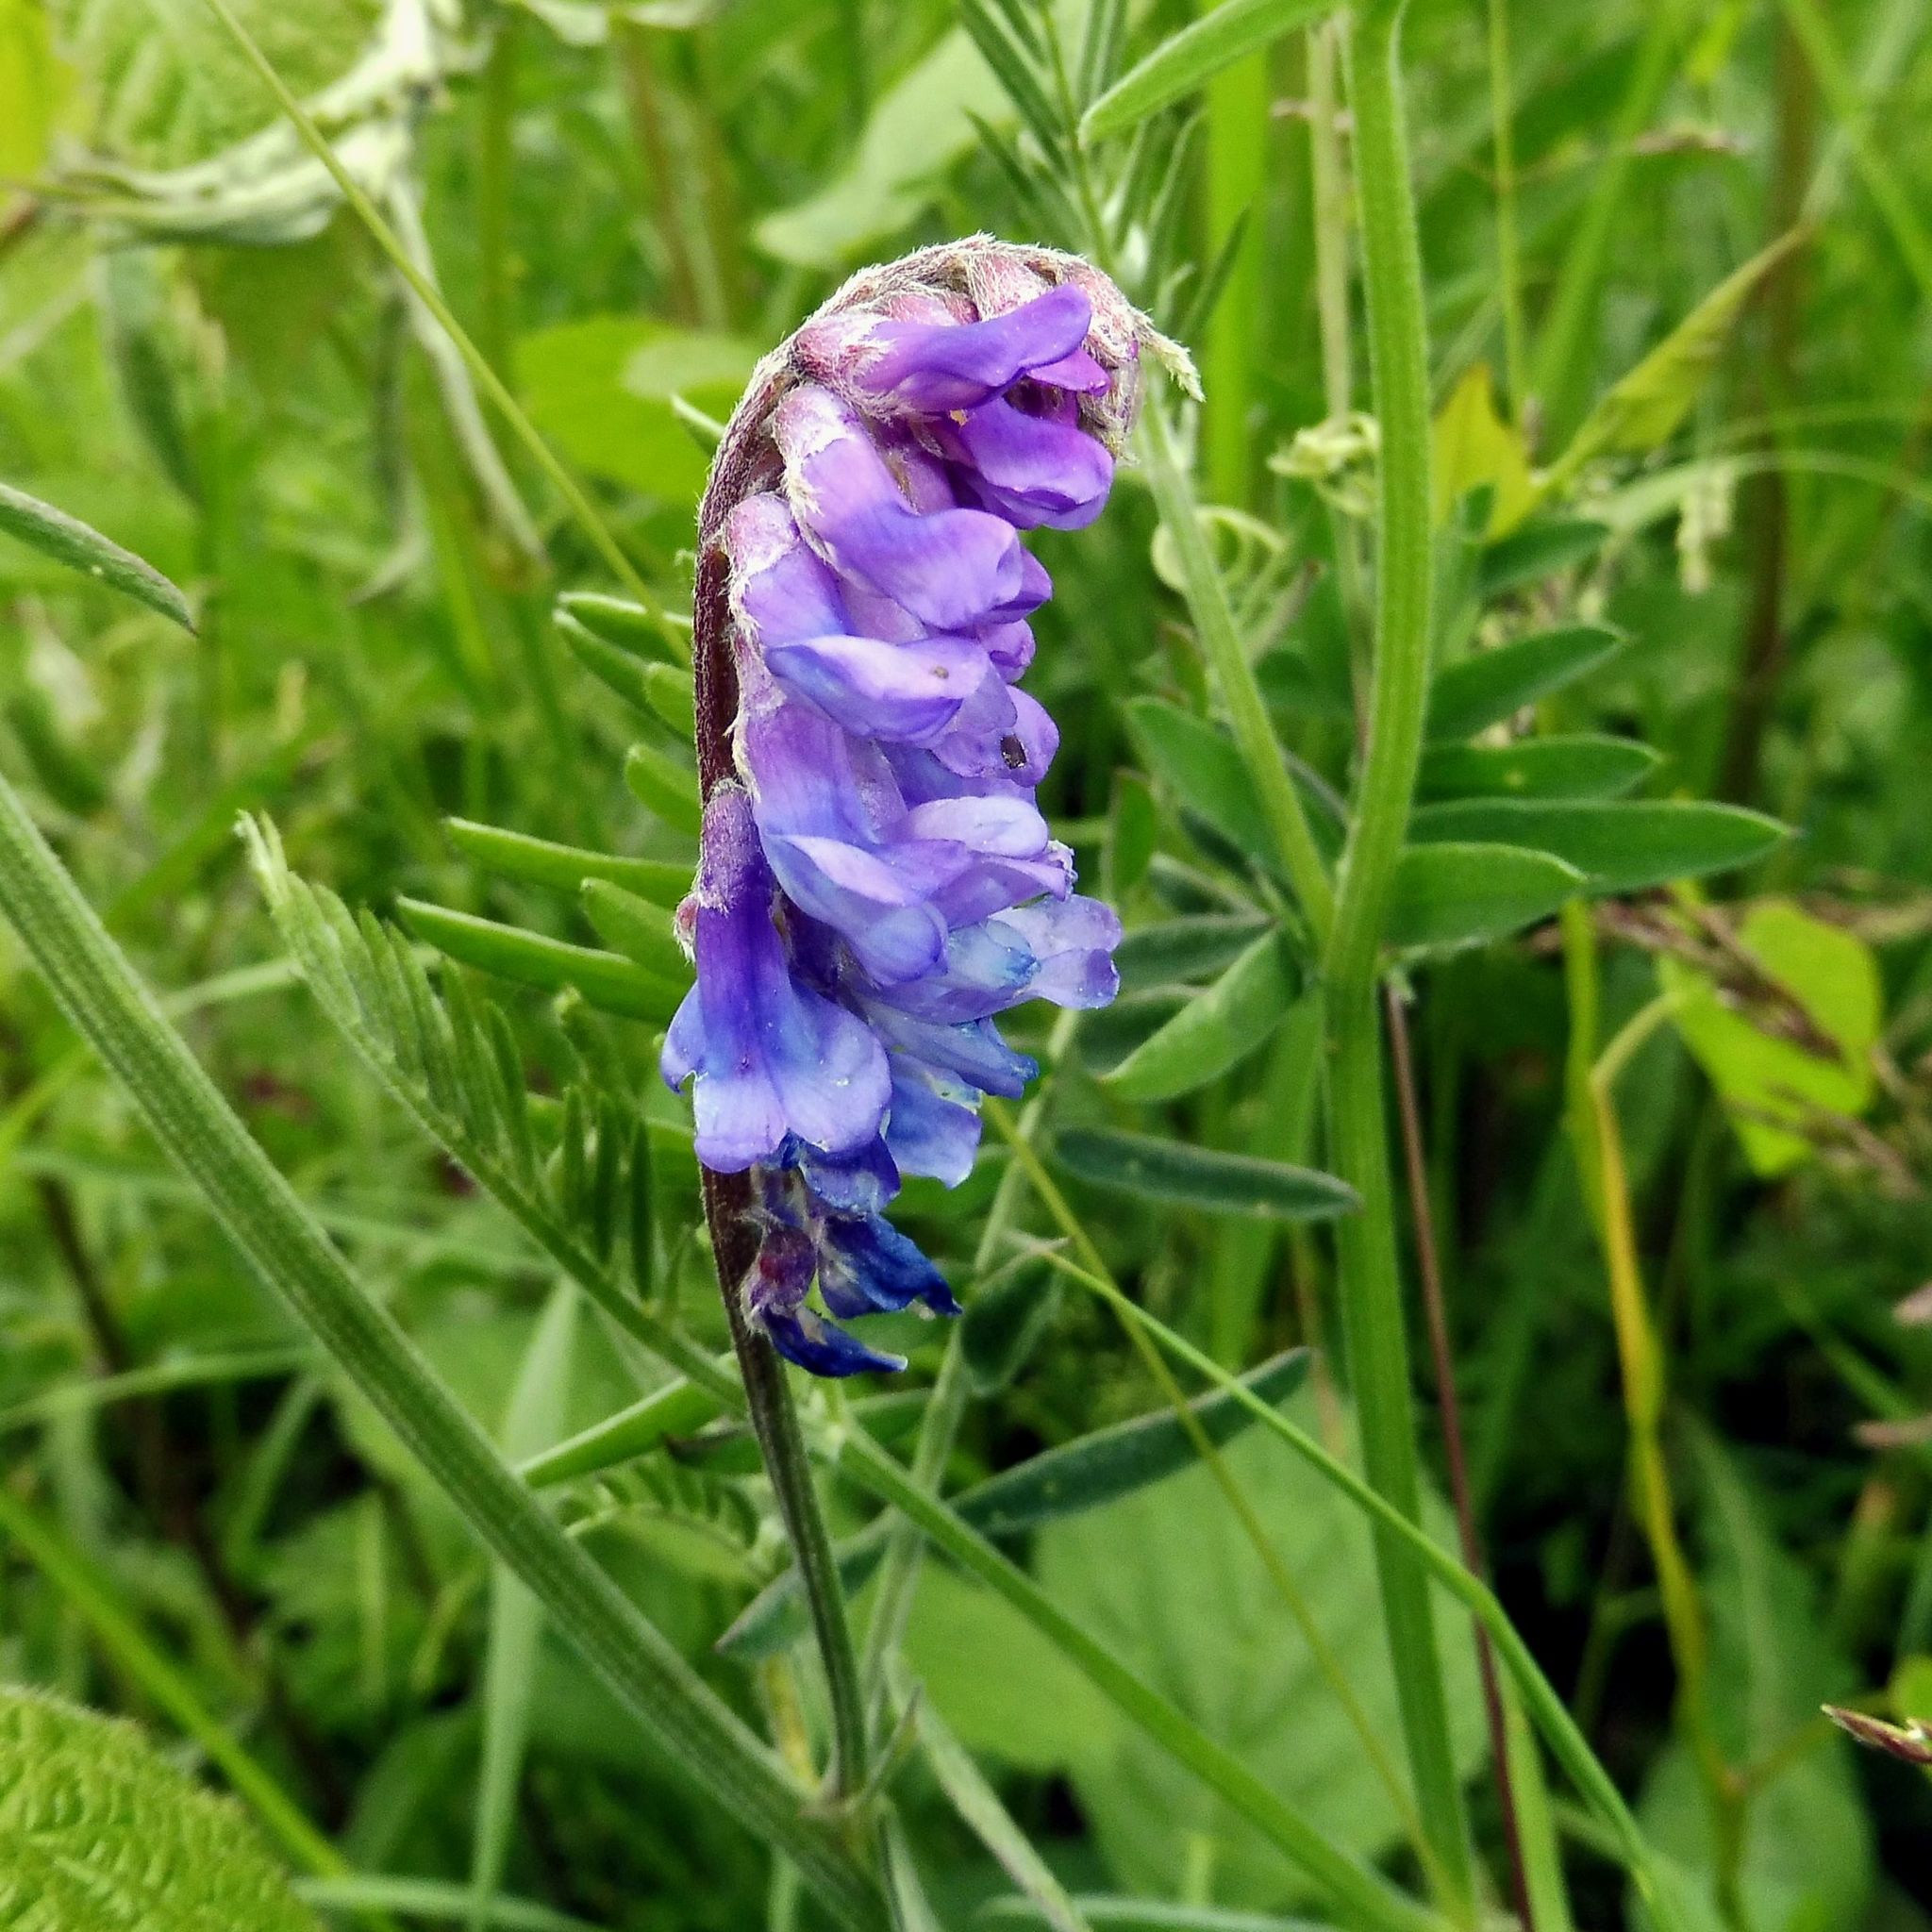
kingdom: Plantae
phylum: Tracheophyta
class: Magnoliopsida
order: Fabales
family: Fabaceae
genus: Vicia
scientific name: Vicia cracca
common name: Bird vetch
